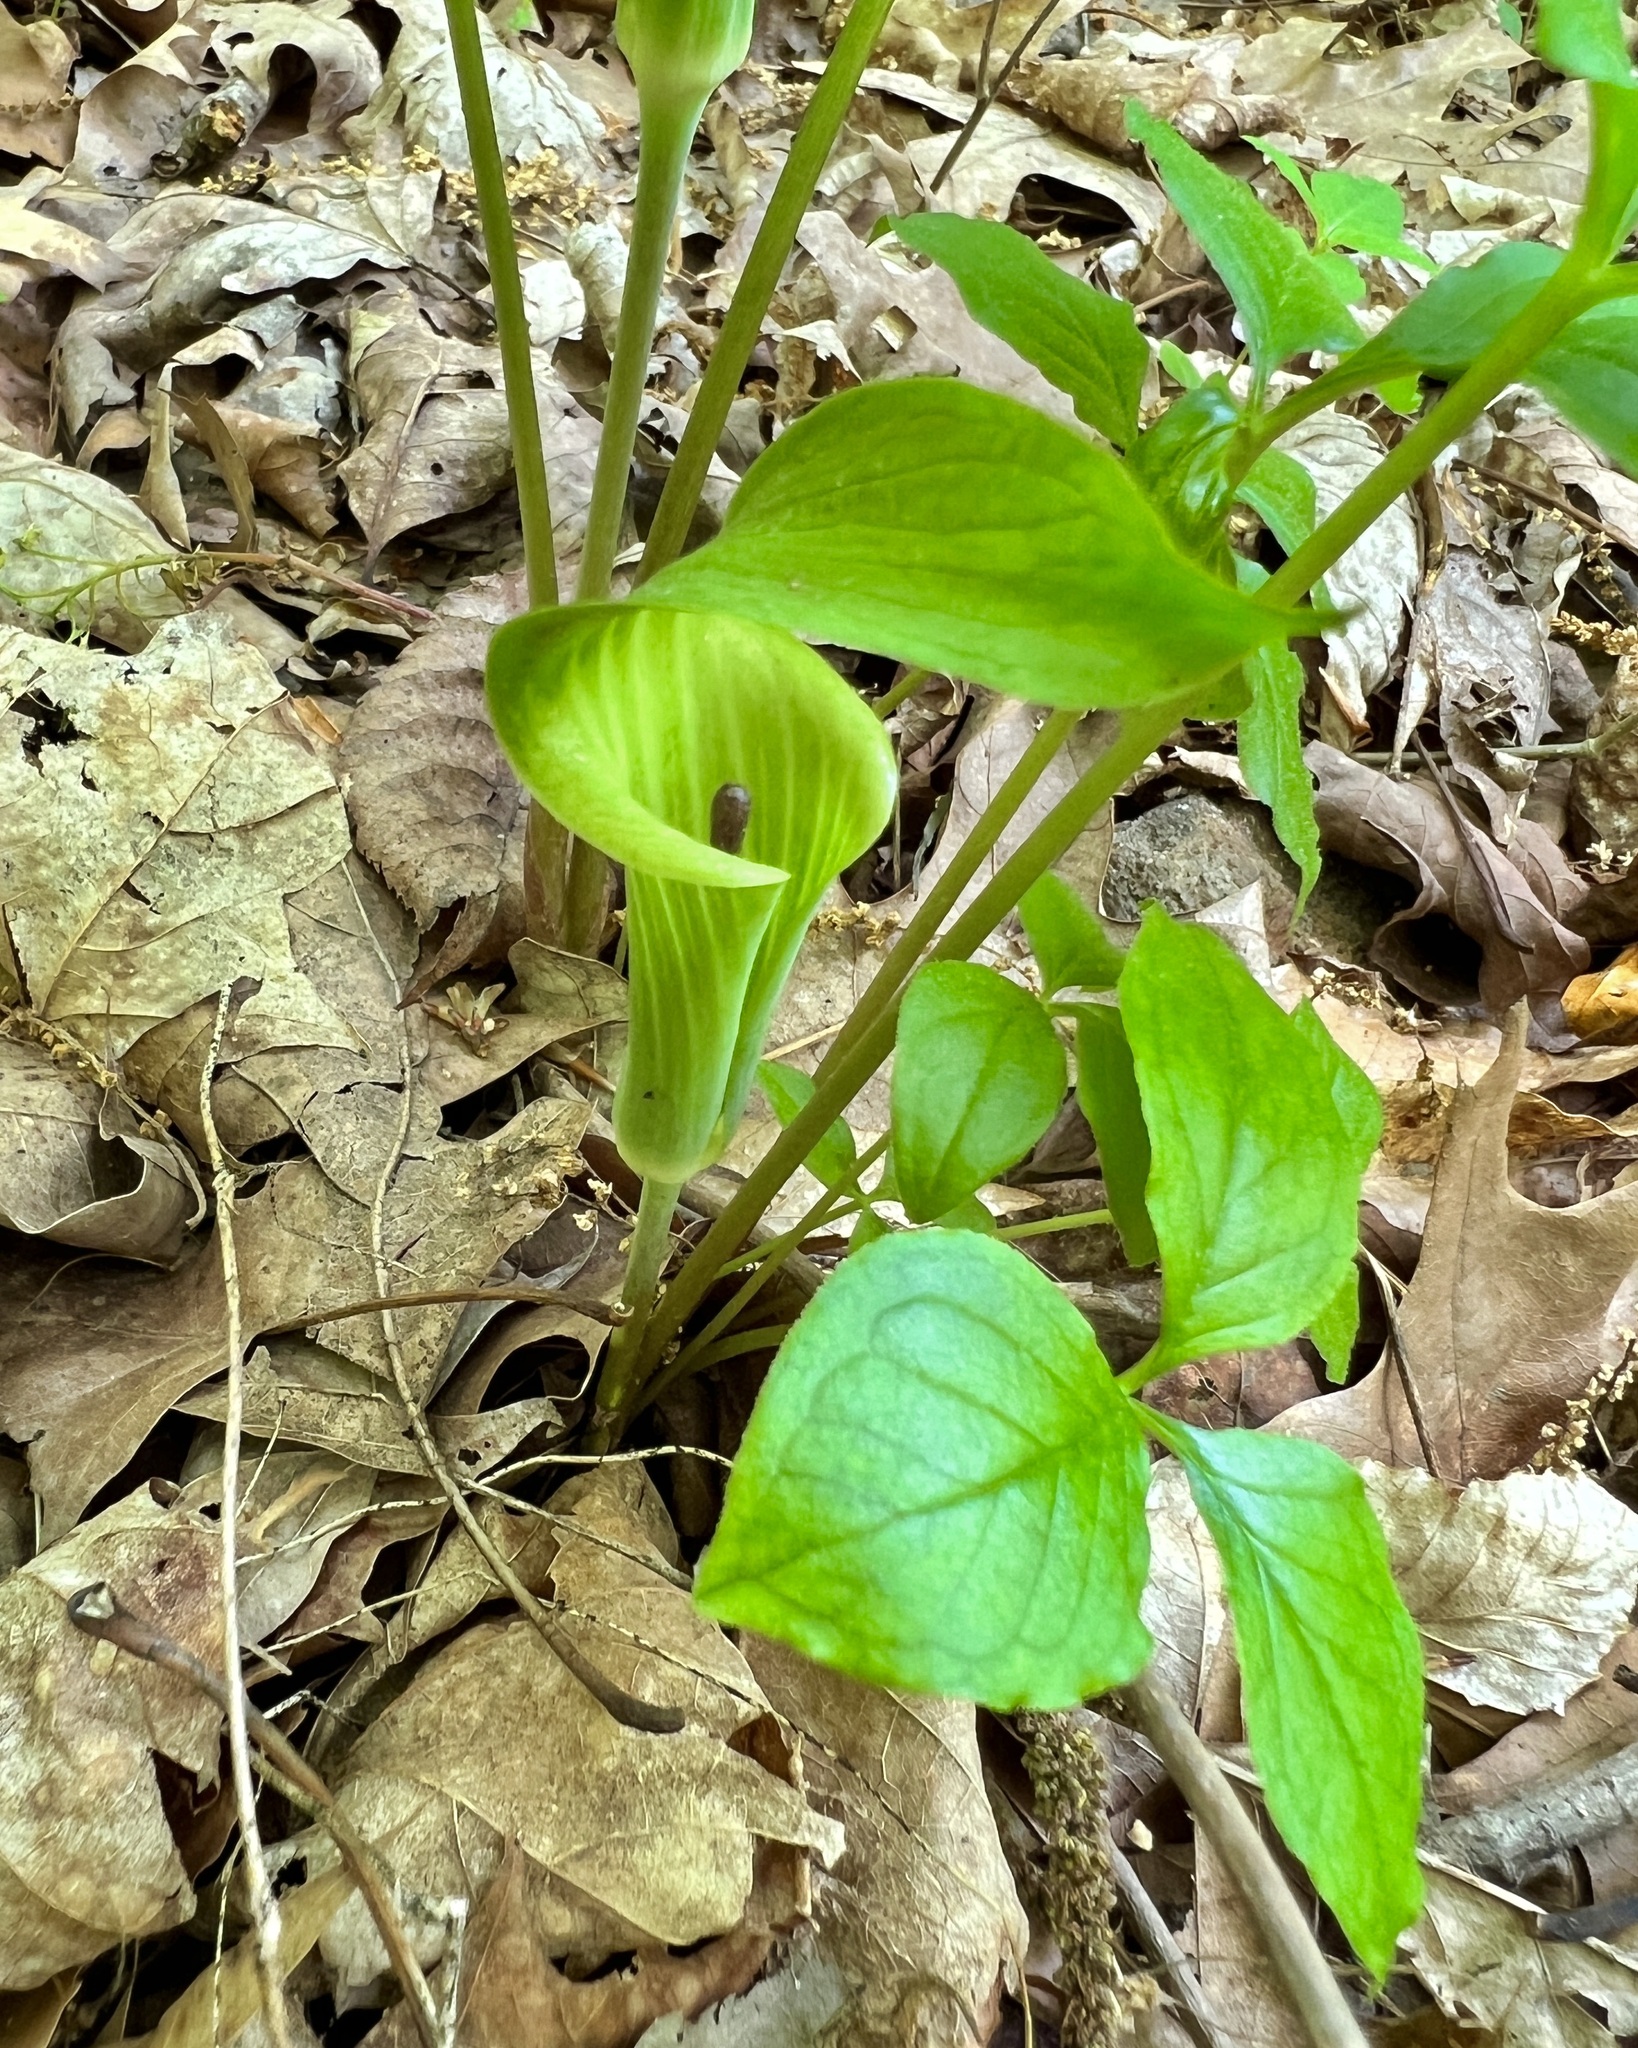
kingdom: Plantae
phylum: Tracheophyta
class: Liliopsida
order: Alismatales
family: Araceae
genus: Arisaema
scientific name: Arisaema triphyllum
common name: Jack-in-the-pulpit
